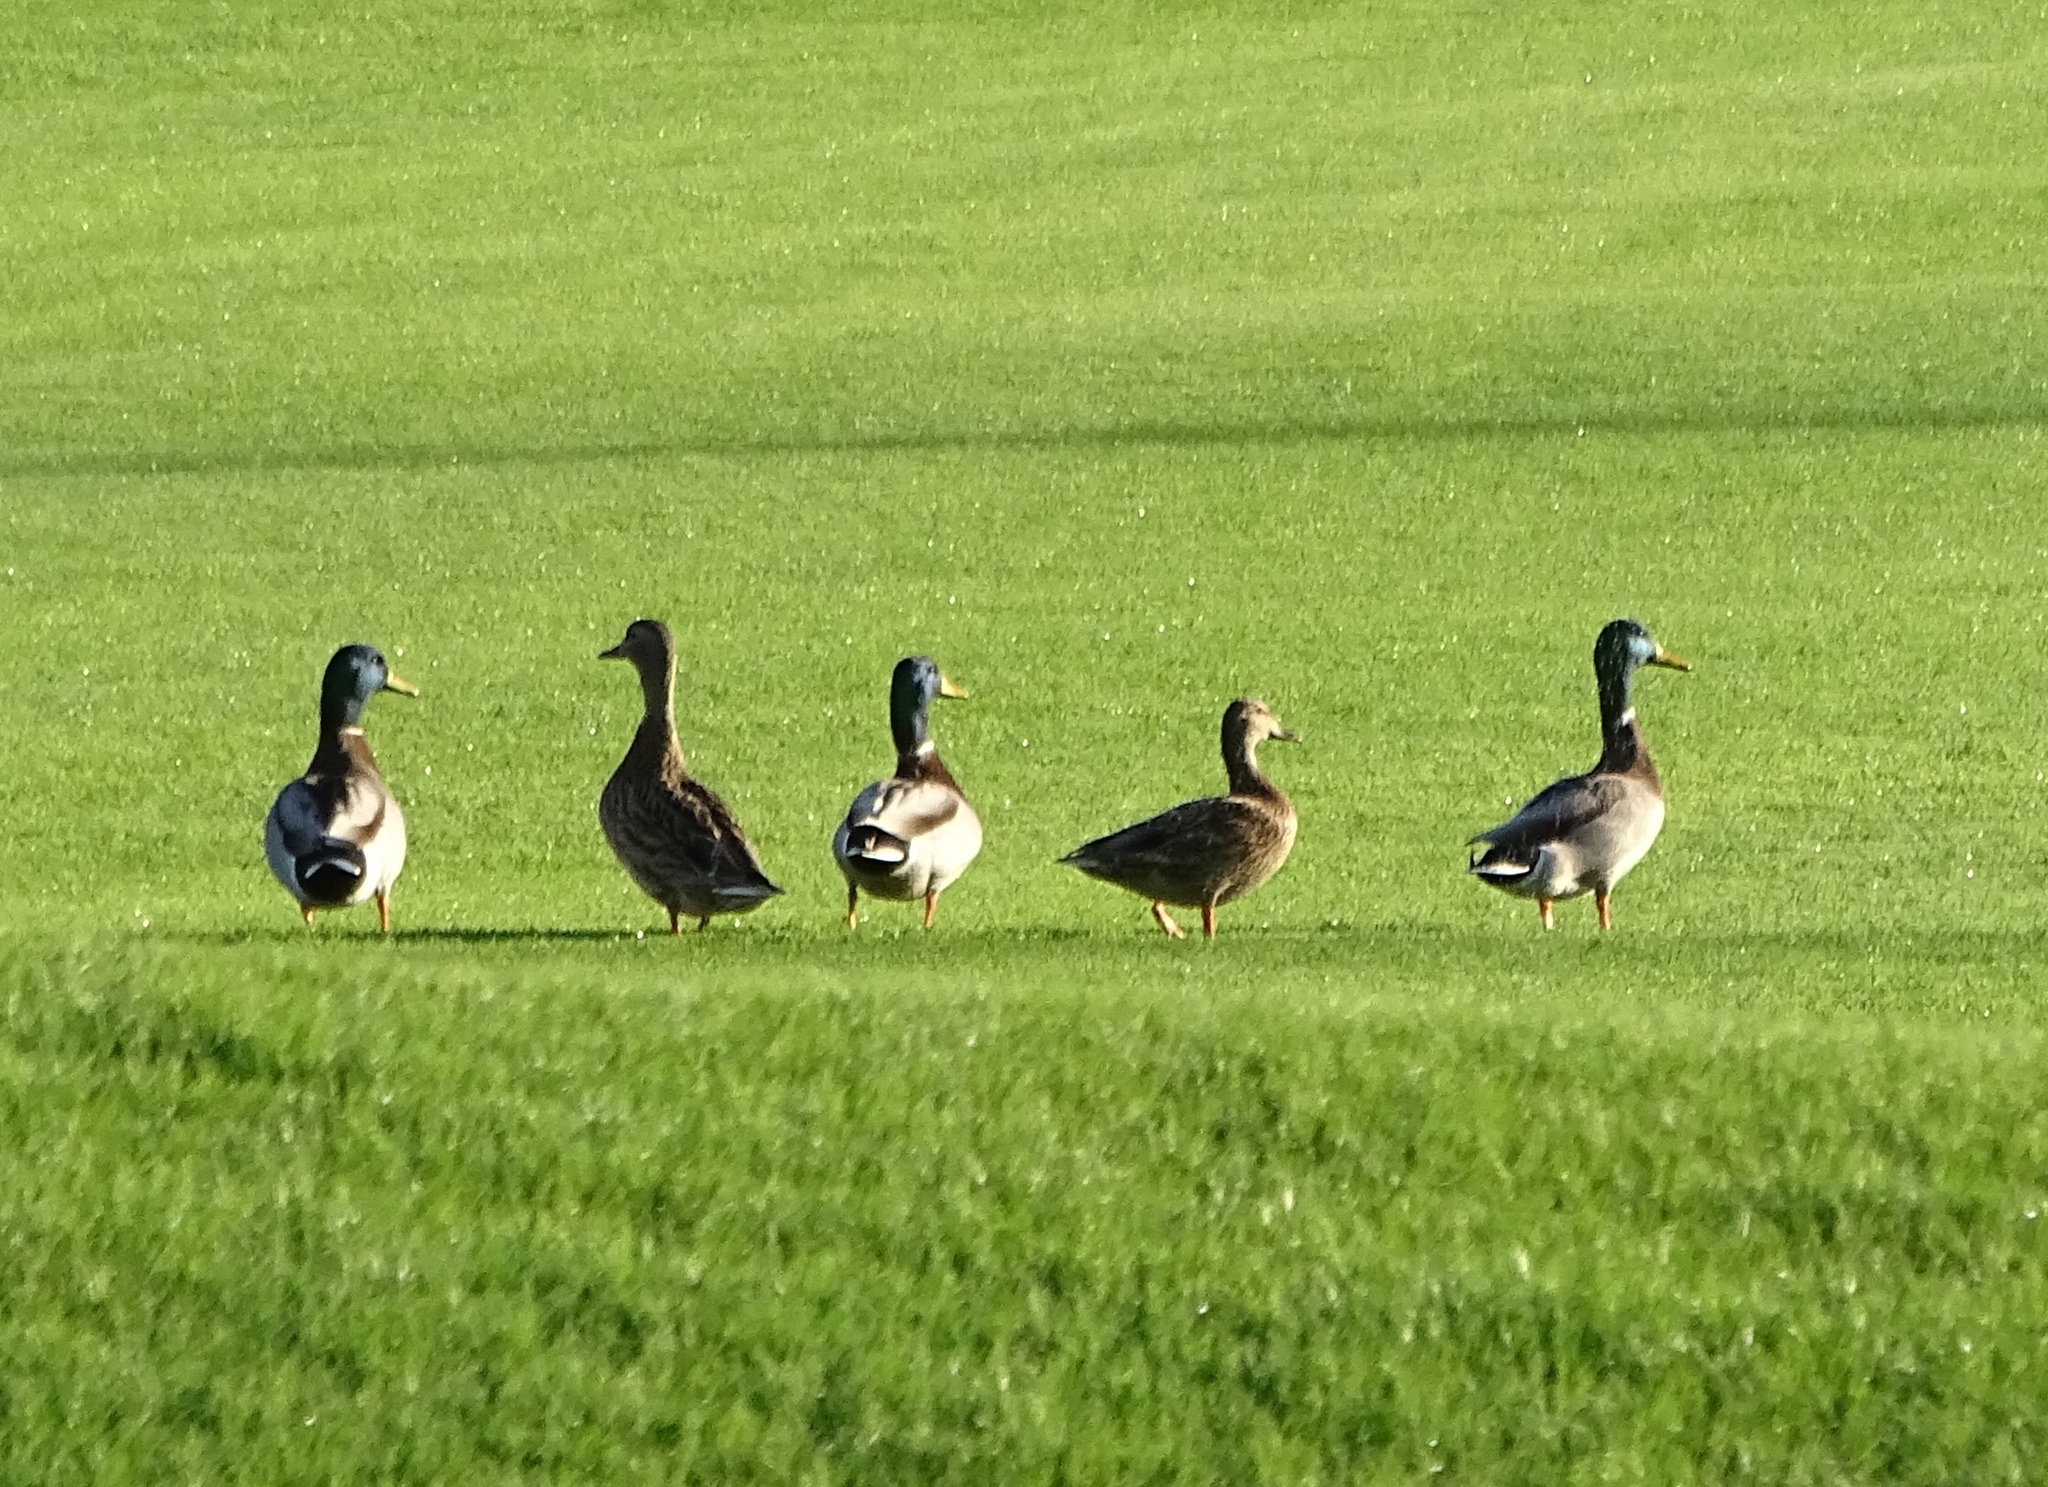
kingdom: Animalia
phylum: Chordata
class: Aves
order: Anseriformes
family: Anatidae
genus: Anas
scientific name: Anas platyrhynchos
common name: Mallard
